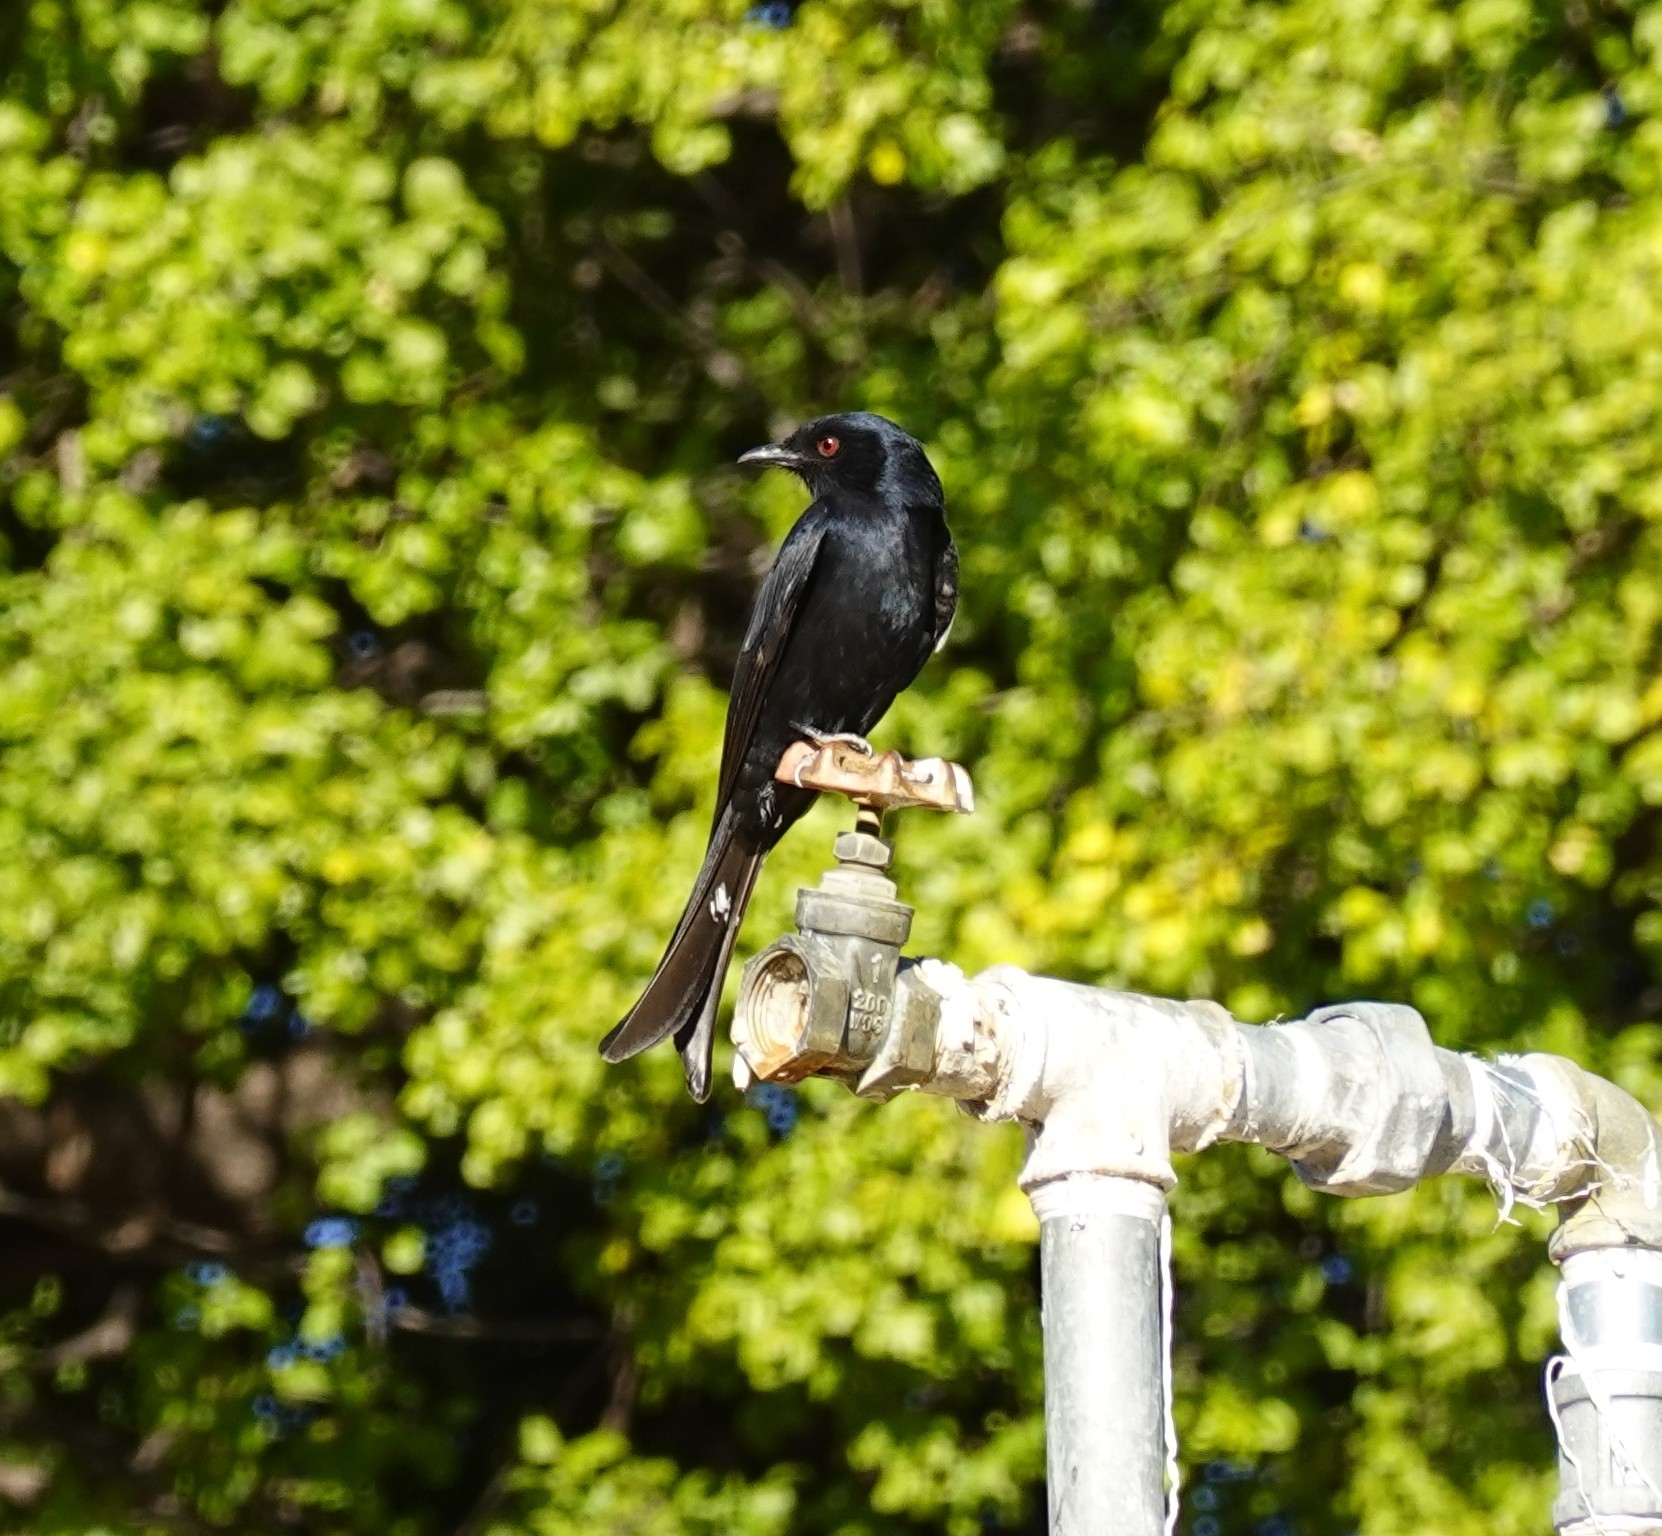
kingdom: Animalia
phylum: Chordata
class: Aves
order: Passeriformes
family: Dicruridae
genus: Dicrurus
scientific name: Dicrurus adsimilis
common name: Fork-tailed drongo
